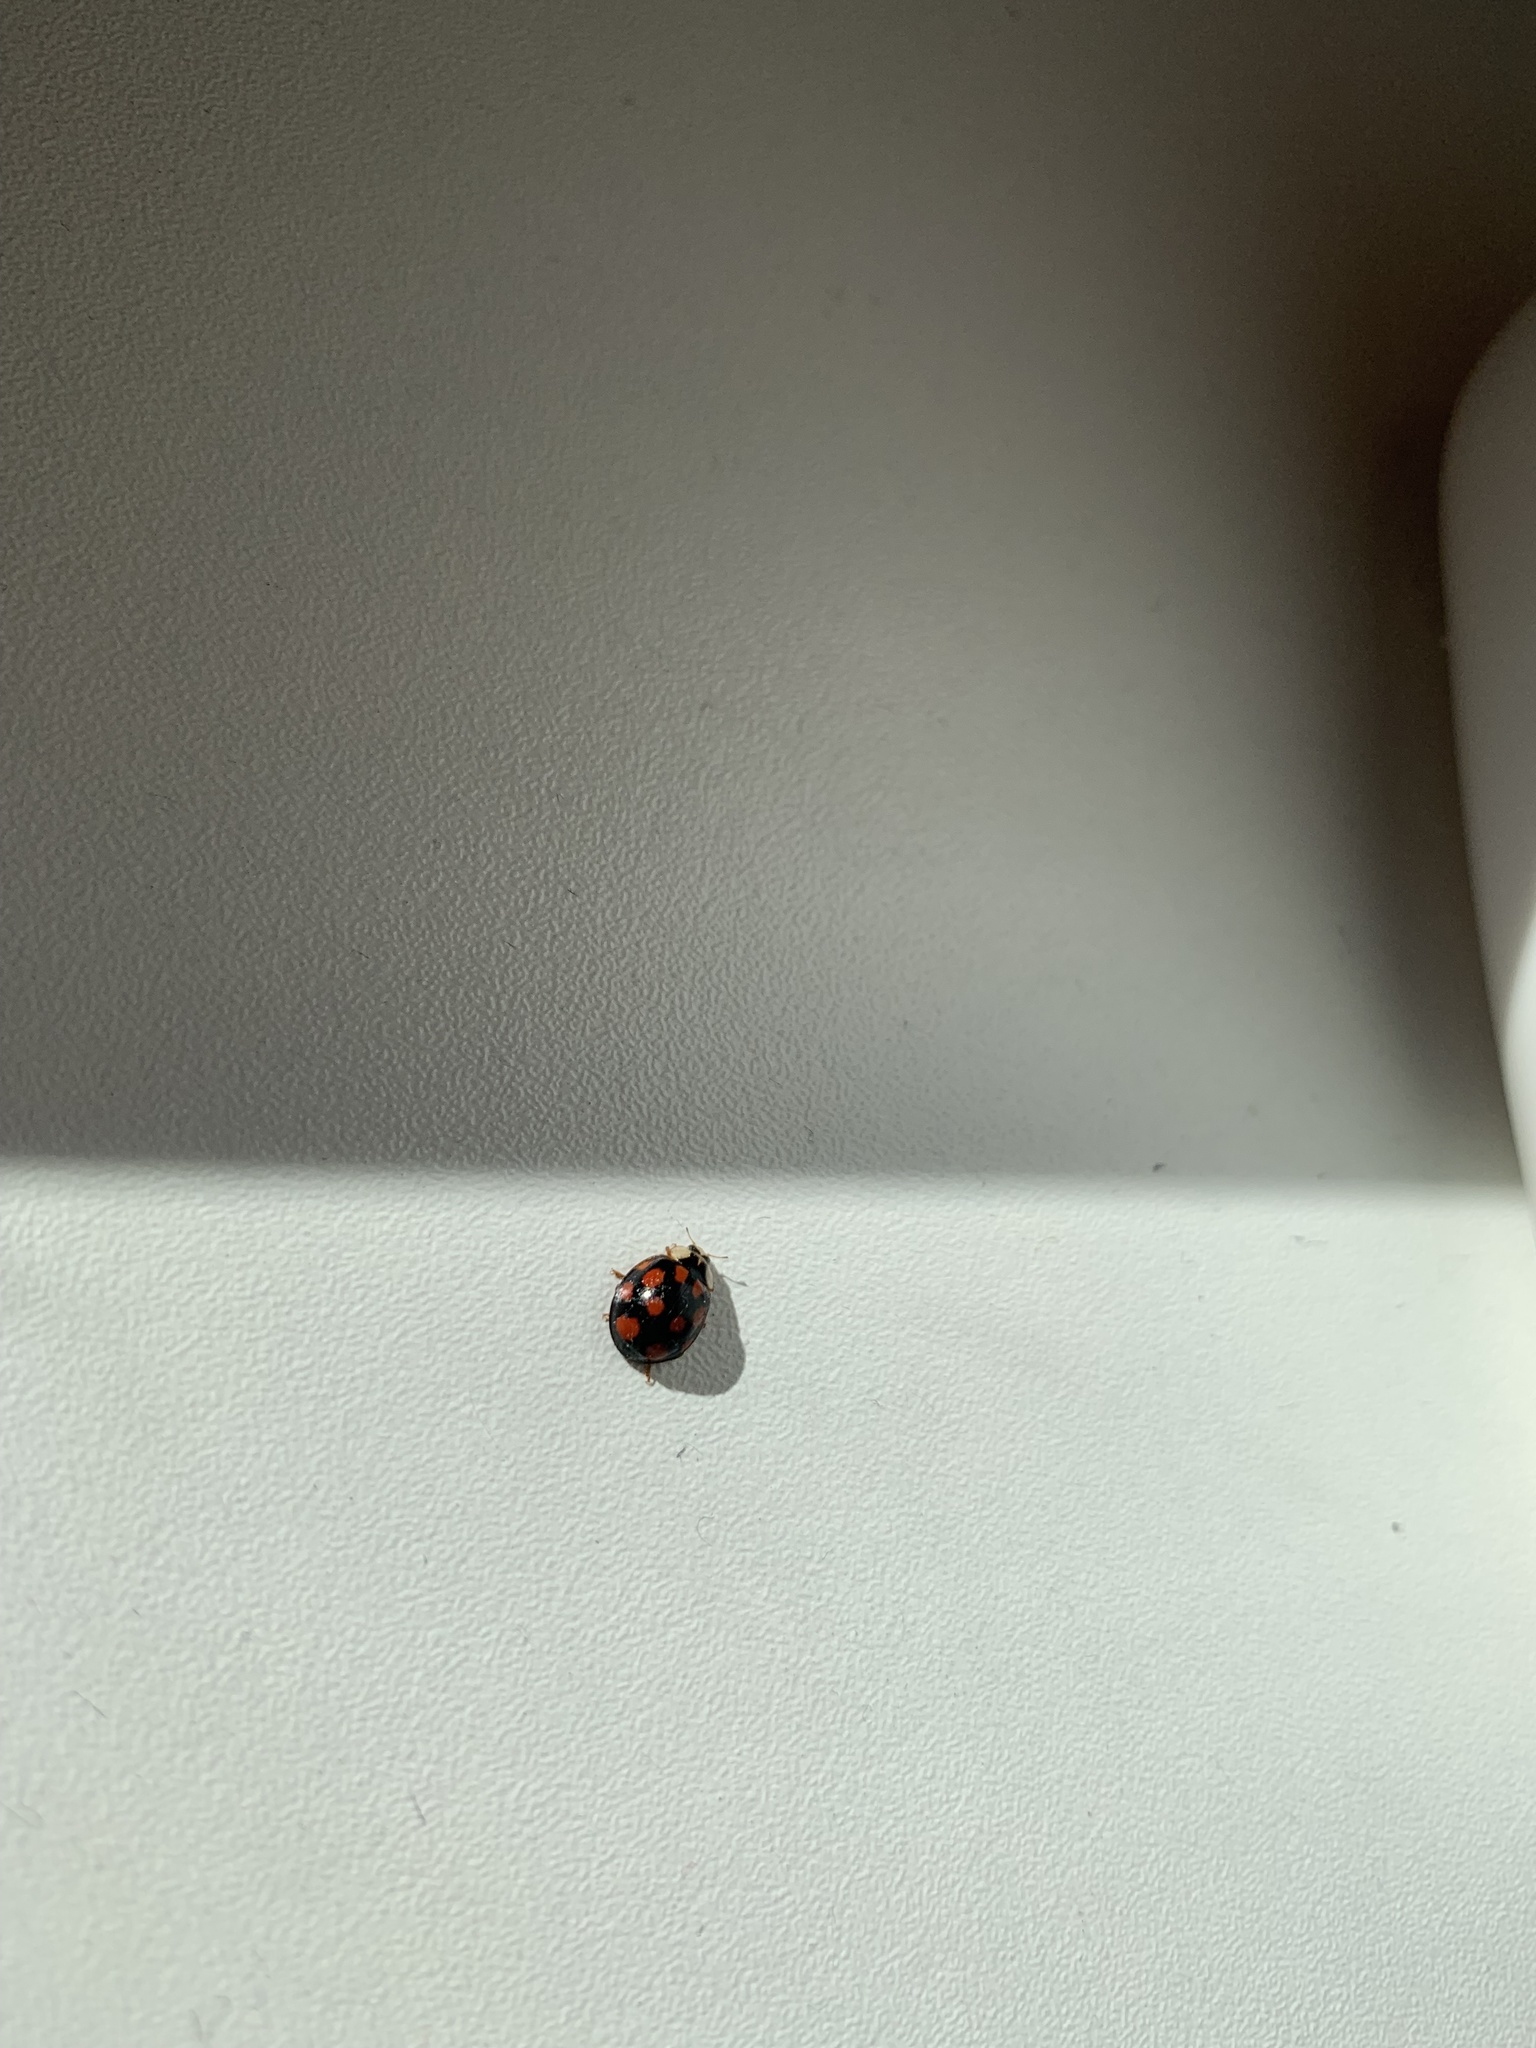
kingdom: Animalia
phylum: Arthropoda
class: Insecta
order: Coleoptera
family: Coccinellidae
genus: Harmonia
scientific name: Harmonia axyridis
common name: Harlequin ladybird
